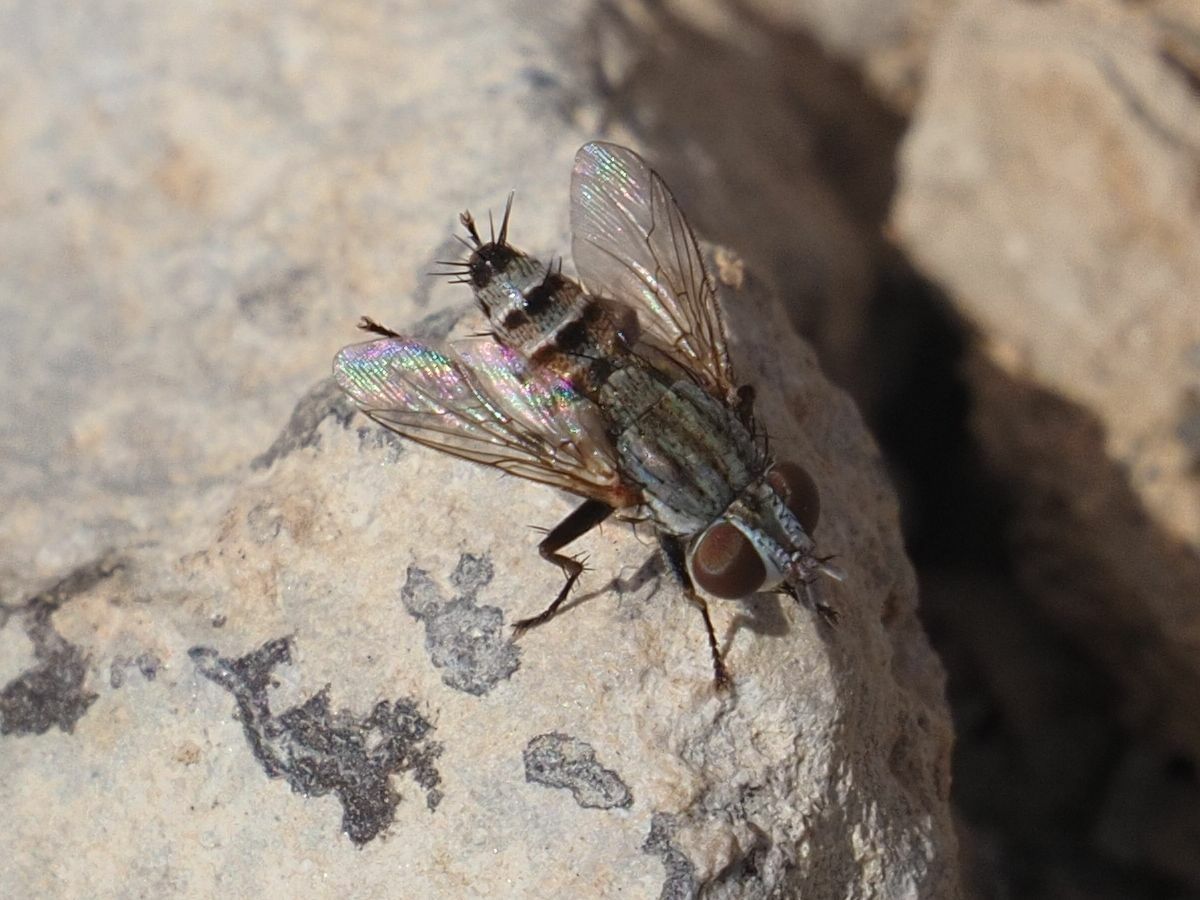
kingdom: Animalia
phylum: Arthropoda
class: Insecta
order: Diptera
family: Sarcophagidae
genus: Taxigramma
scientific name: Taxigramma heteroneura
